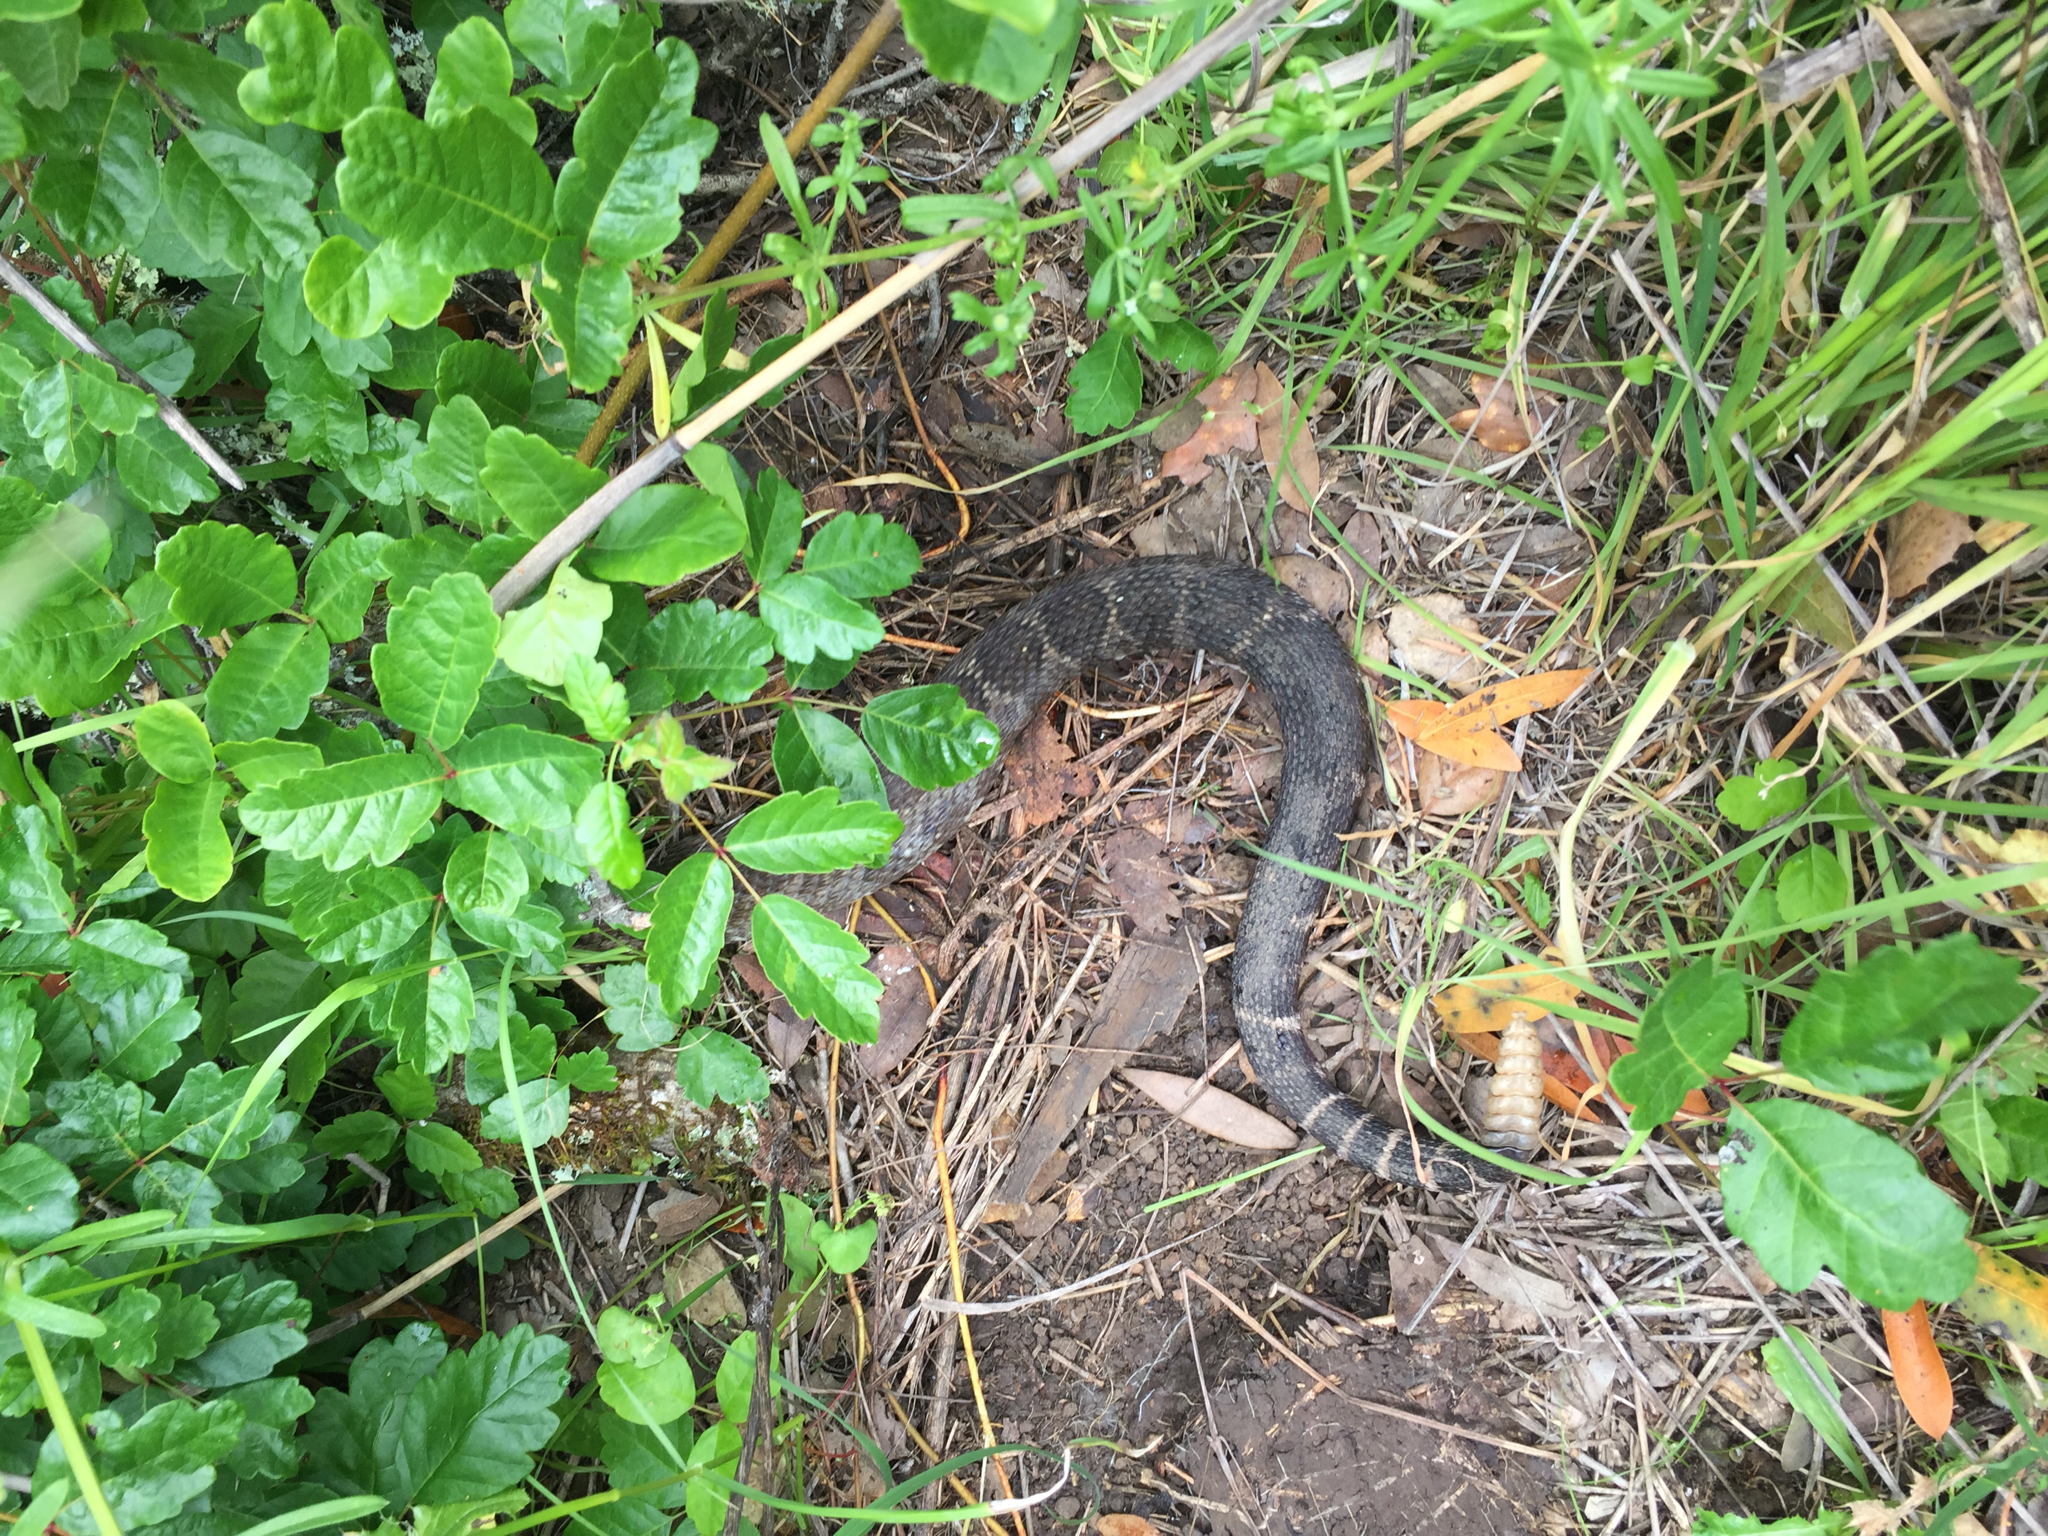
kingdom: Animalia
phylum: Chordata
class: Squamata
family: Viperidae
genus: Crotalus
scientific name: Crotalus oreganus
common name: Abyssus
